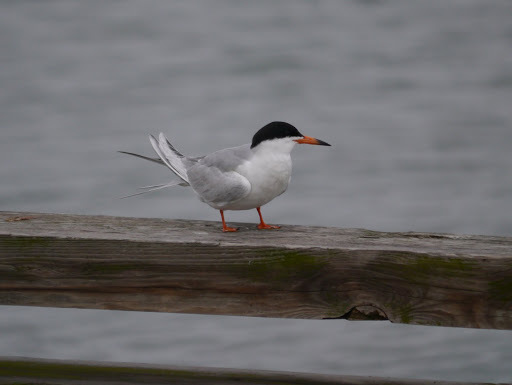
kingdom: Animalia
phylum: Chordata
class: Aves
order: Charadriiformes
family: Laridae
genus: Sterna
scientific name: Sterna forsteri
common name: Forster's tern
